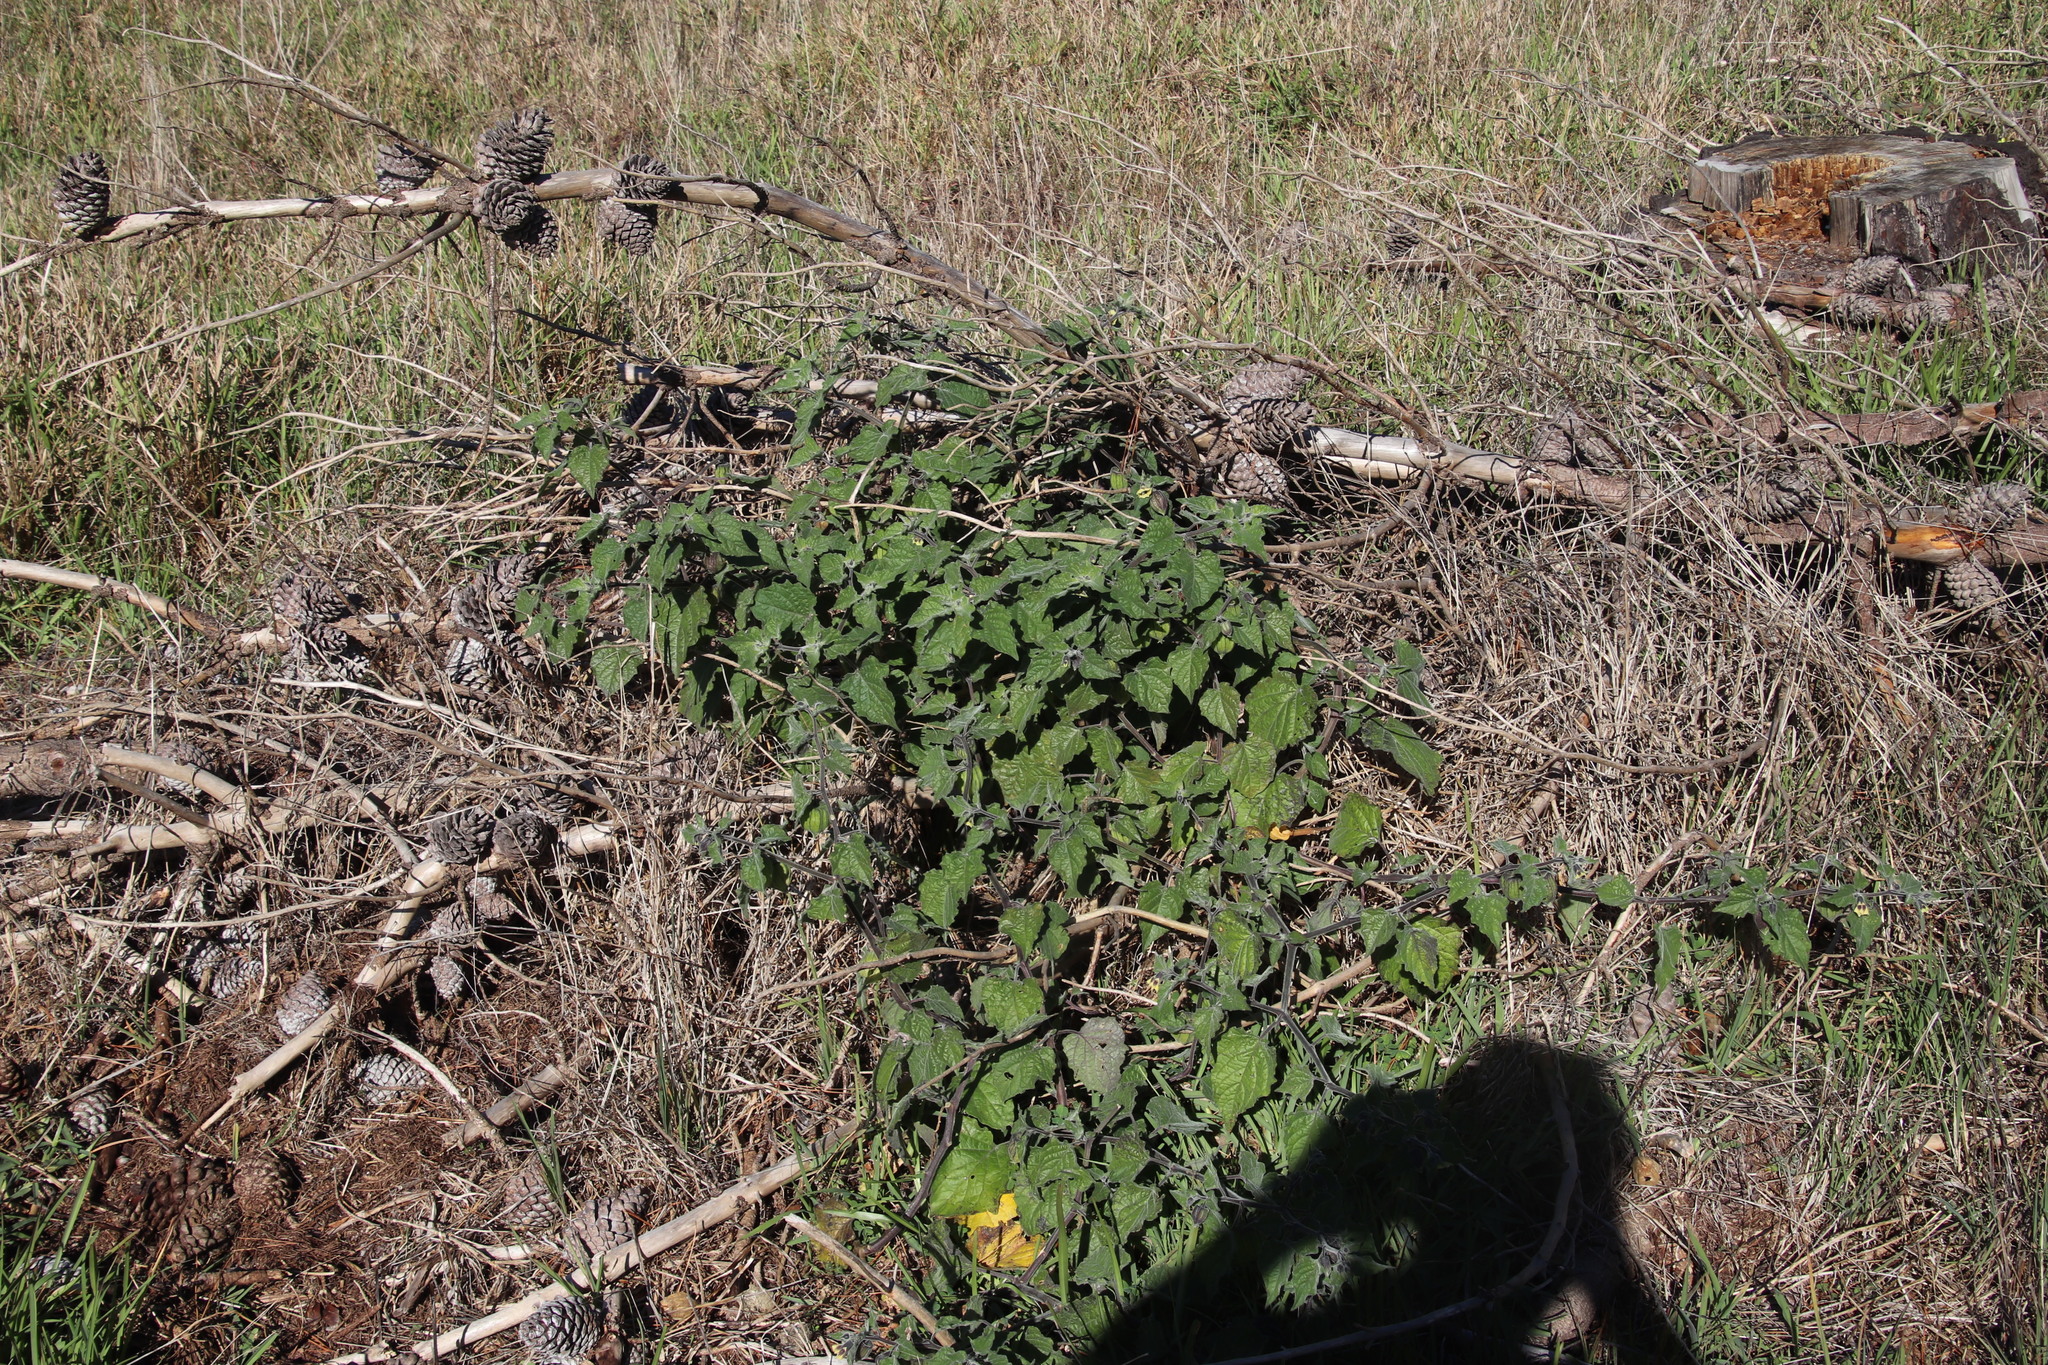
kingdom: Plantae
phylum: Tracheophyta
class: Magnoliopsida
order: Solanales
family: Solanaceae
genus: Physalis
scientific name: Physalis peruviana
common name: Cape-gooseberry
